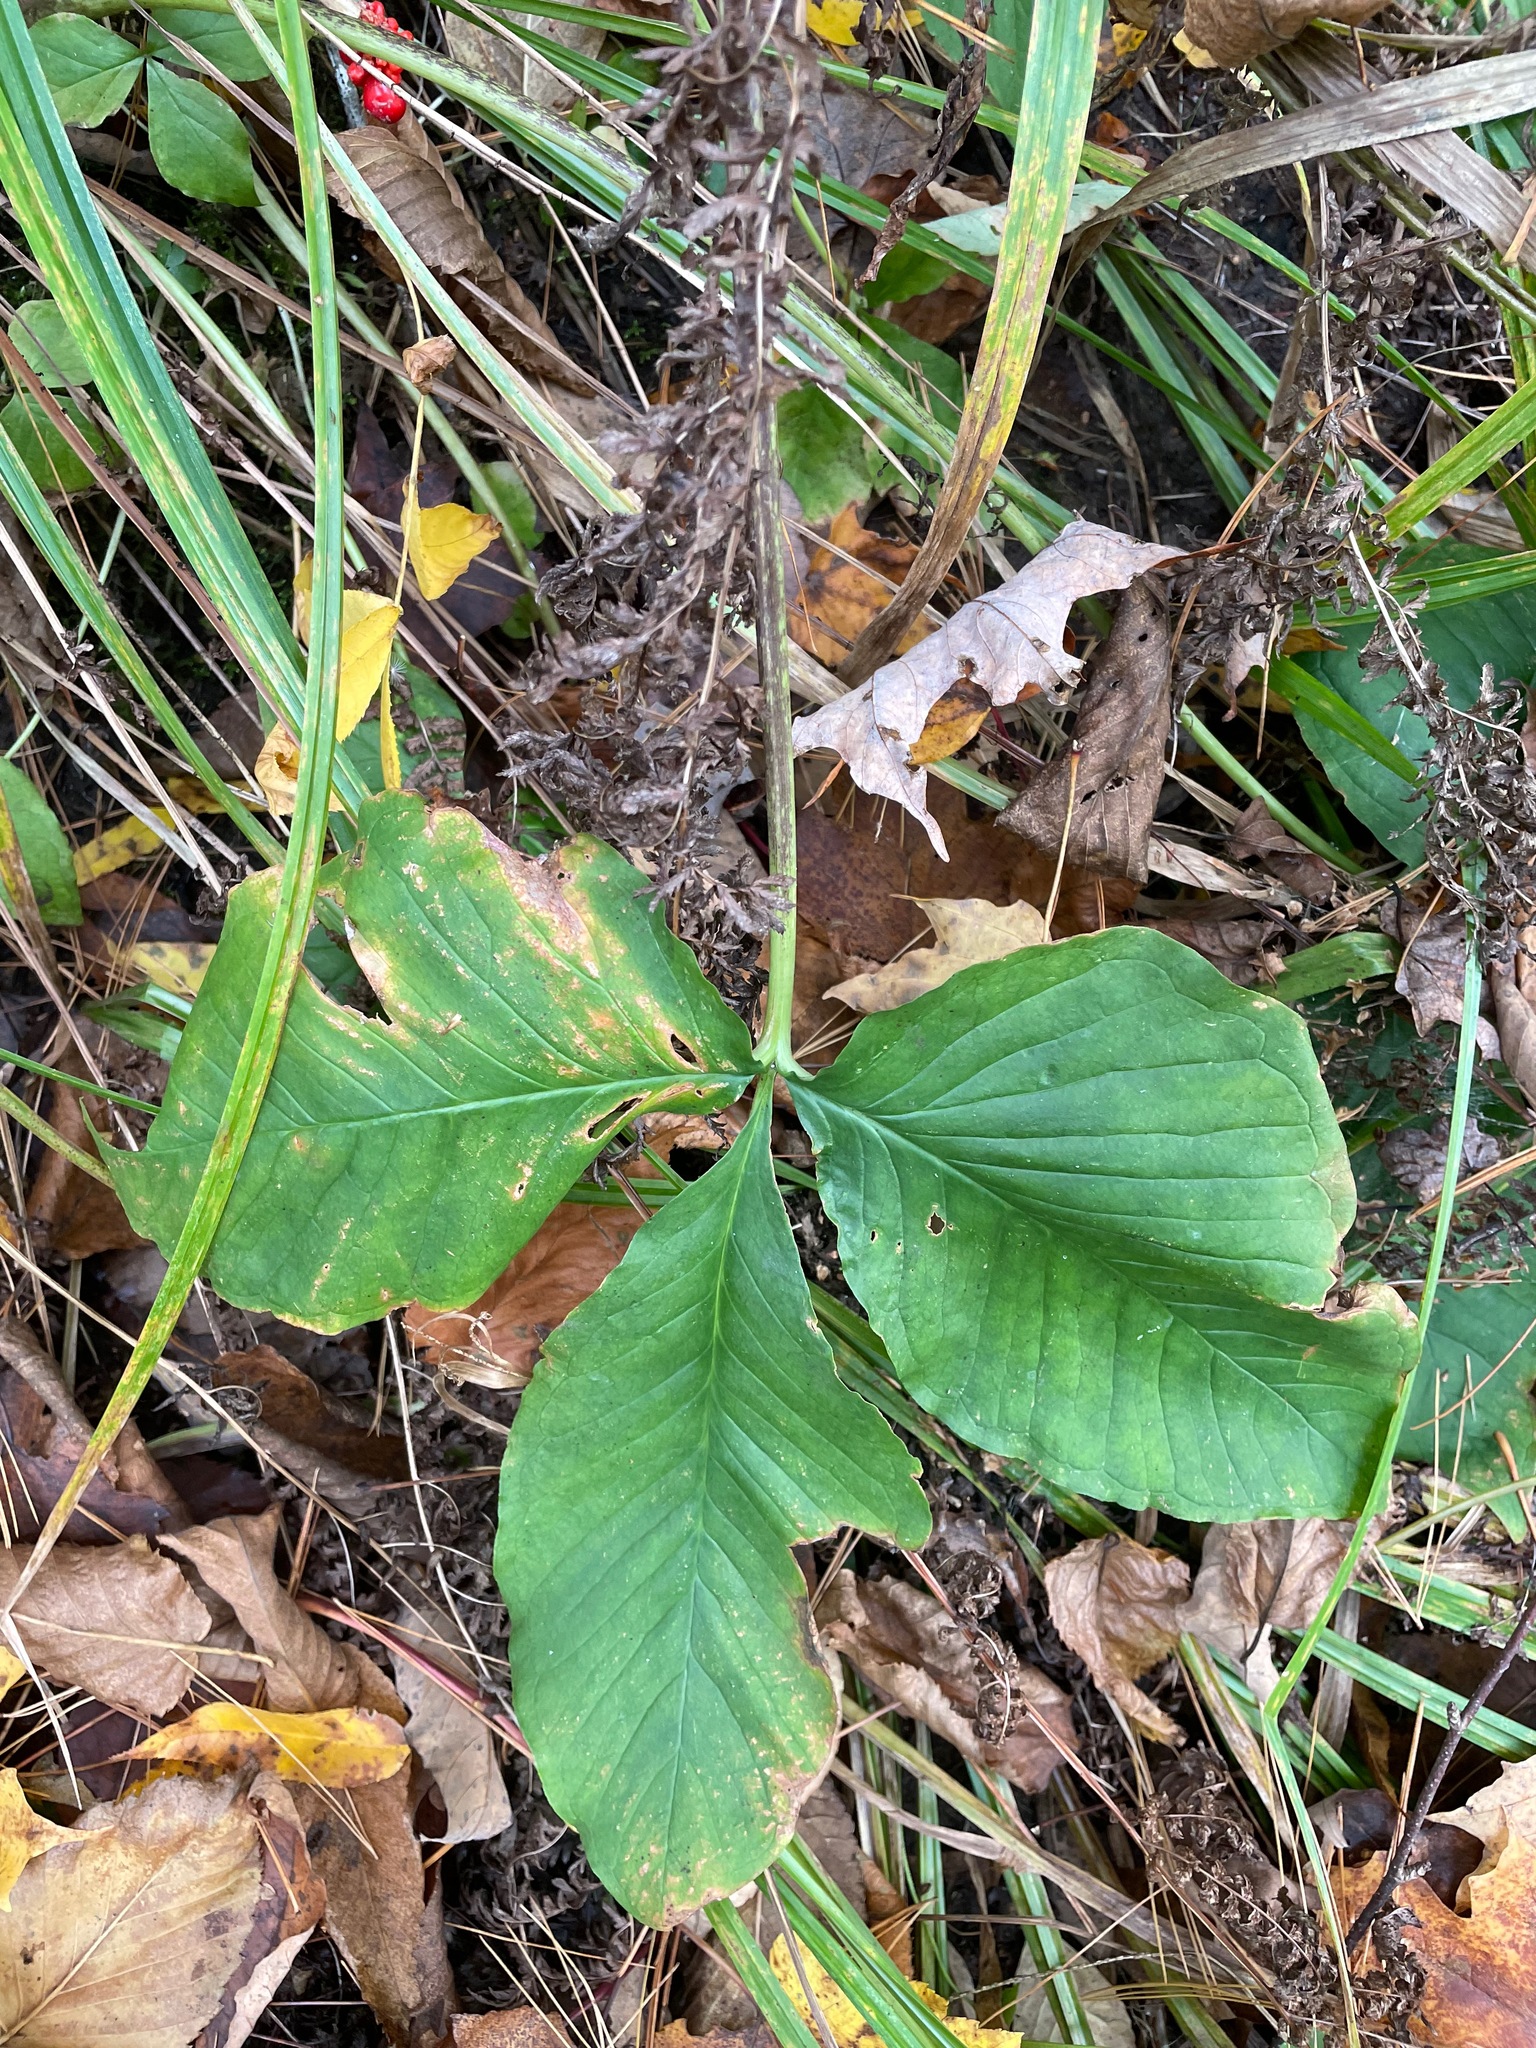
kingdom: Plantae
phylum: Tracheophyta
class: Liliopsida
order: Alismatales
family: Araceae
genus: Arisaema
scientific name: Arisaema triphyllum
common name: Jack-in-the-pulpit
